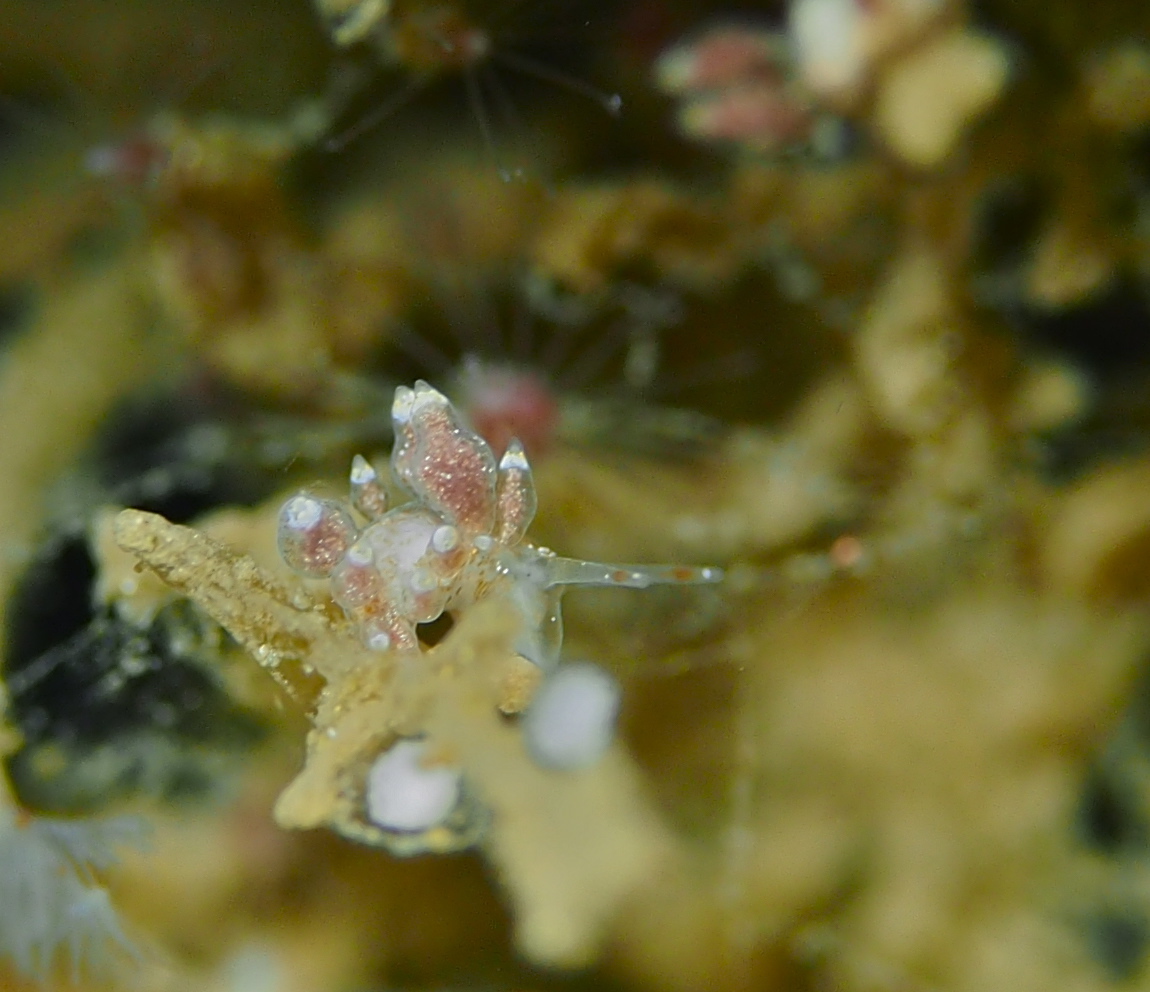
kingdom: Animalia
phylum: Mollusca
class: Gastropoda
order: Nudibranchia
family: Eubranchidae
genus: Eubranchus
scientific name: Eubranchus exiguus
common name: Balloon aeolis
